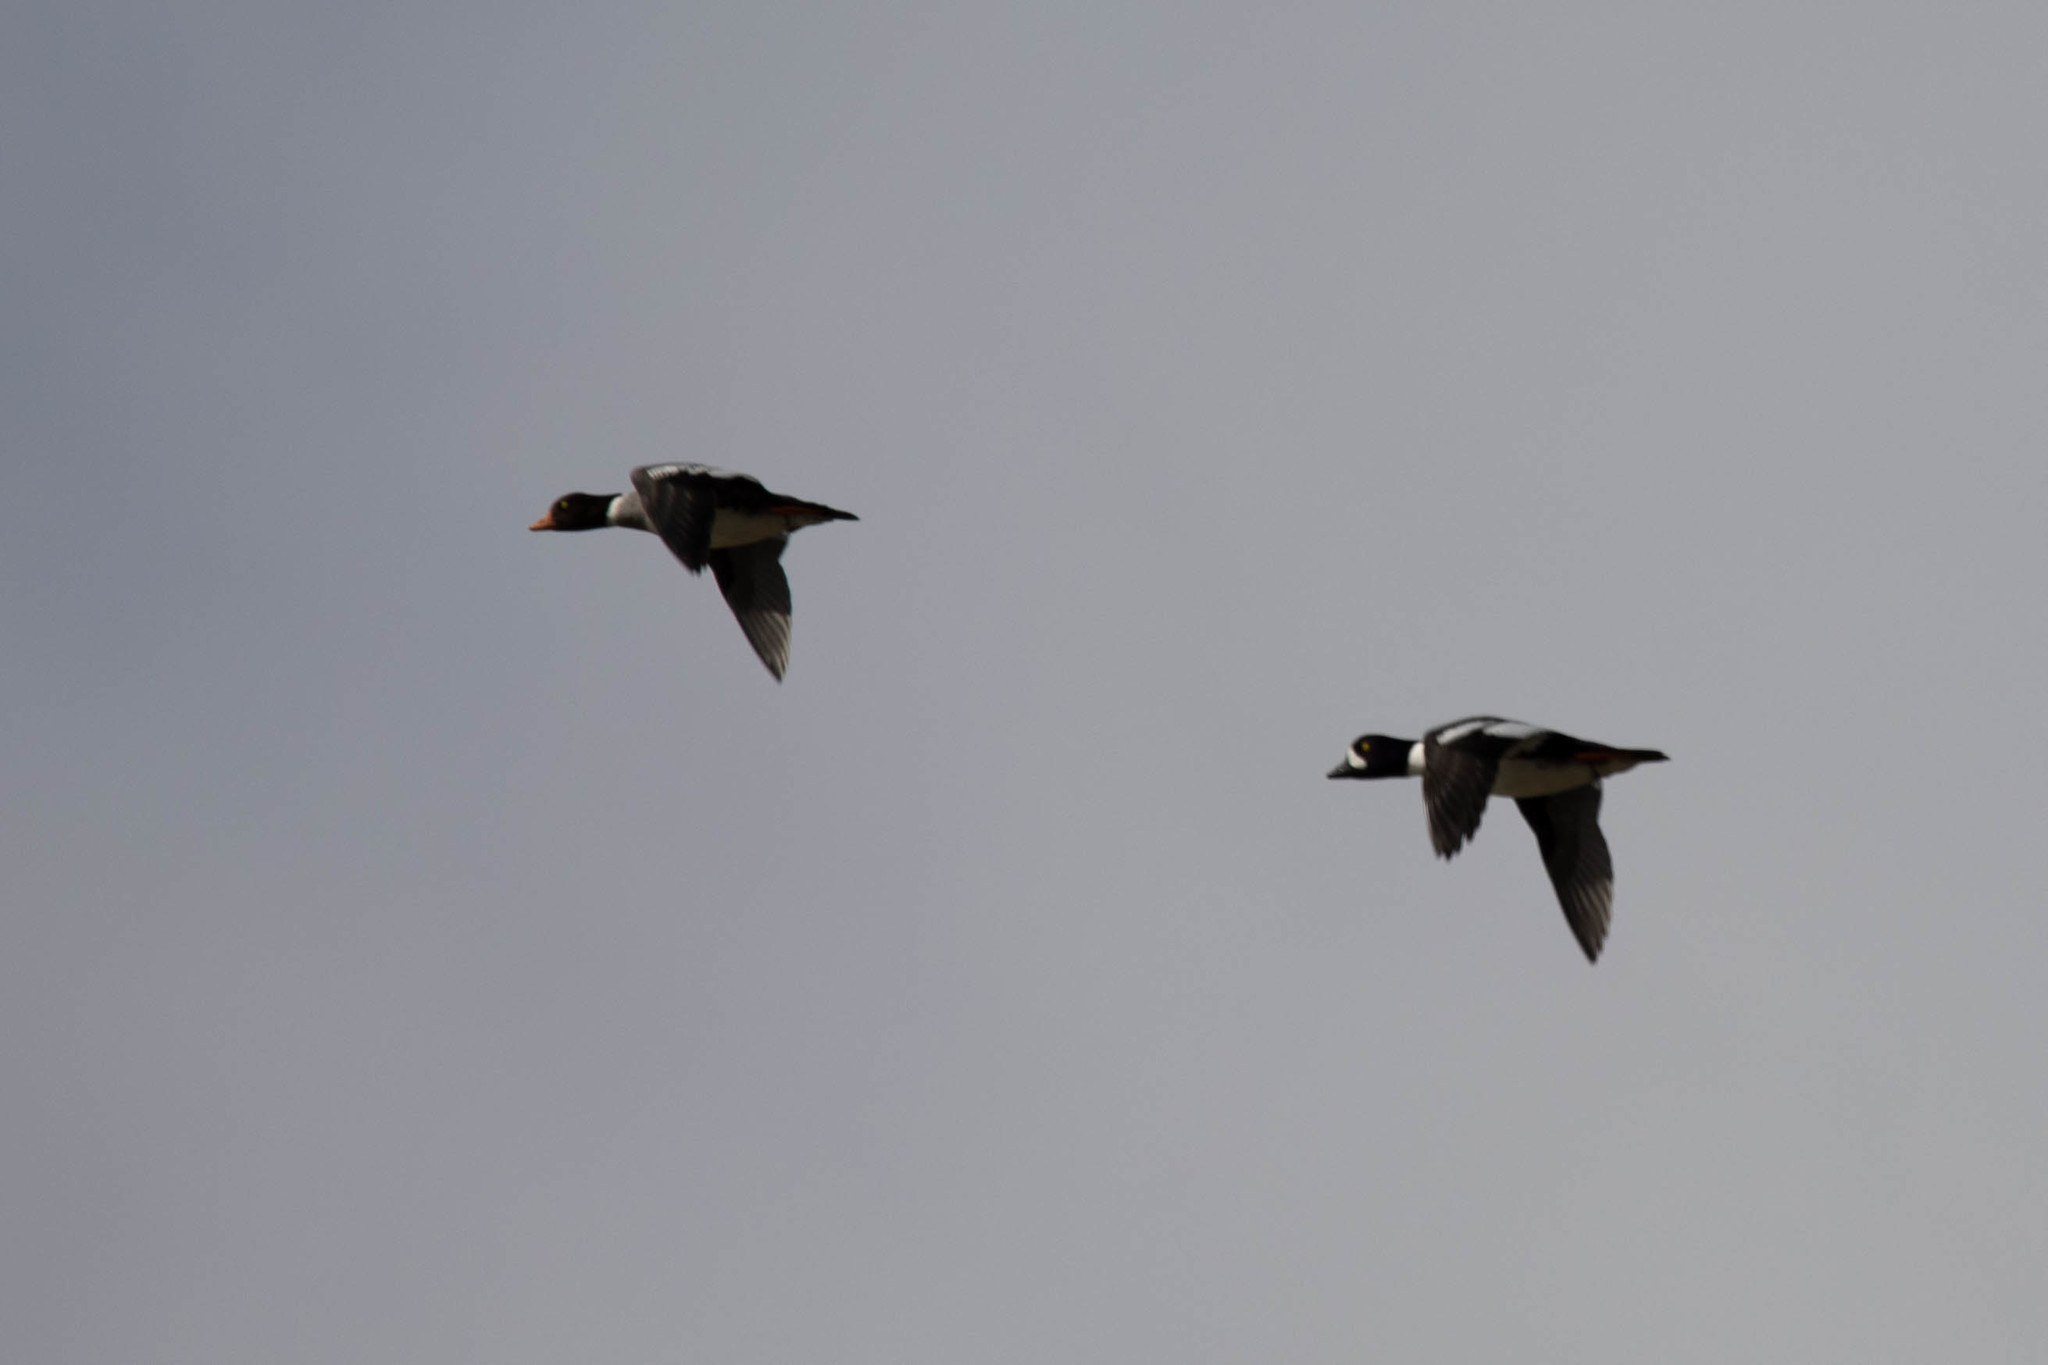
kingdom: Animalia
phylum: Chordata
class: Aves
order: Anseriformes
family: Anatidae
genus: Bucephala
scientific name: Bucephala islandica
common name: Barrow's goldeneye
